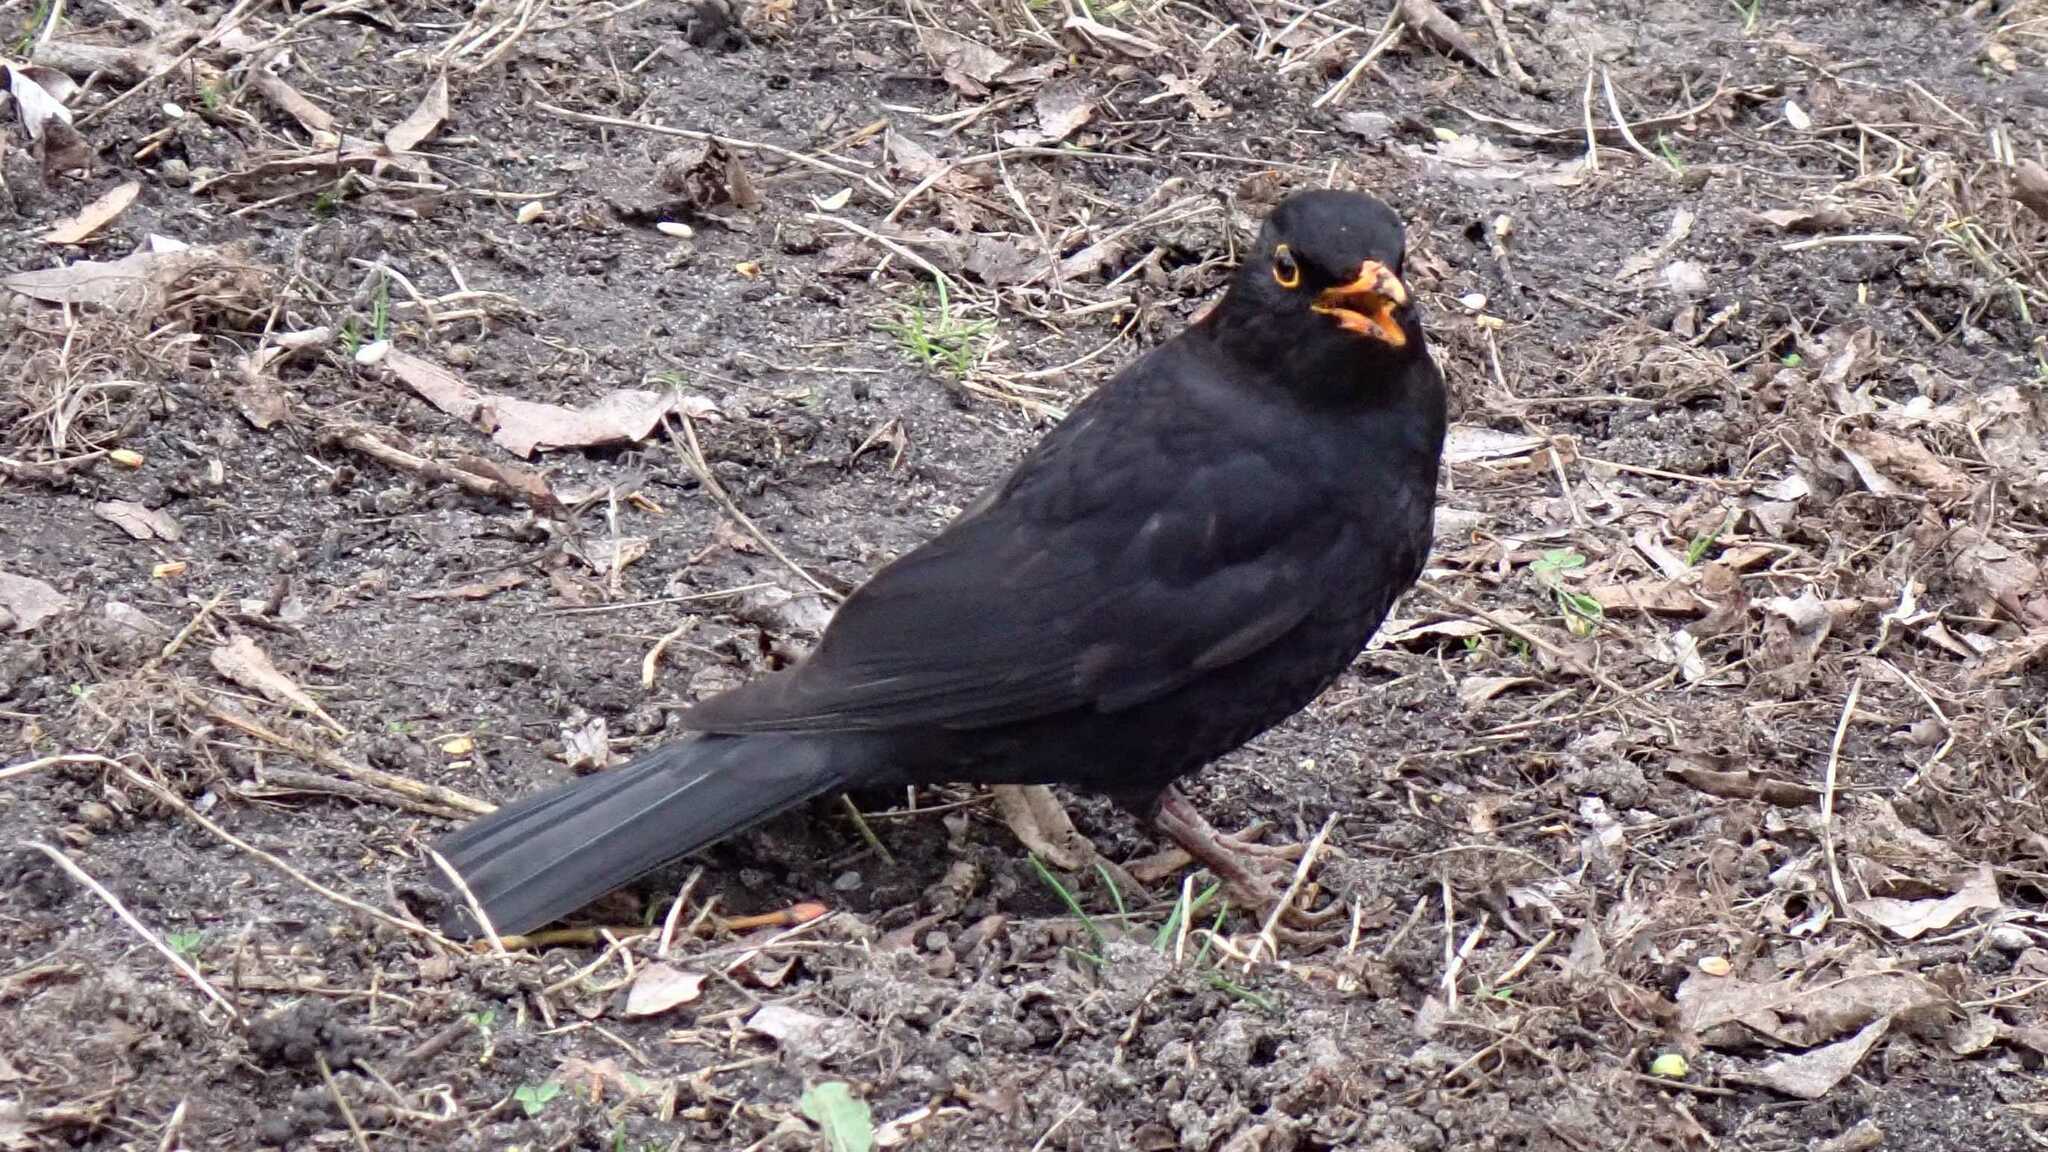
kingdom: Animalia
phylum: Chordata
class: Aves
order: Passeriformes
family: Turdidae
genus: Turdus
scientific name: Turdus merula
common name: Common blackbird
